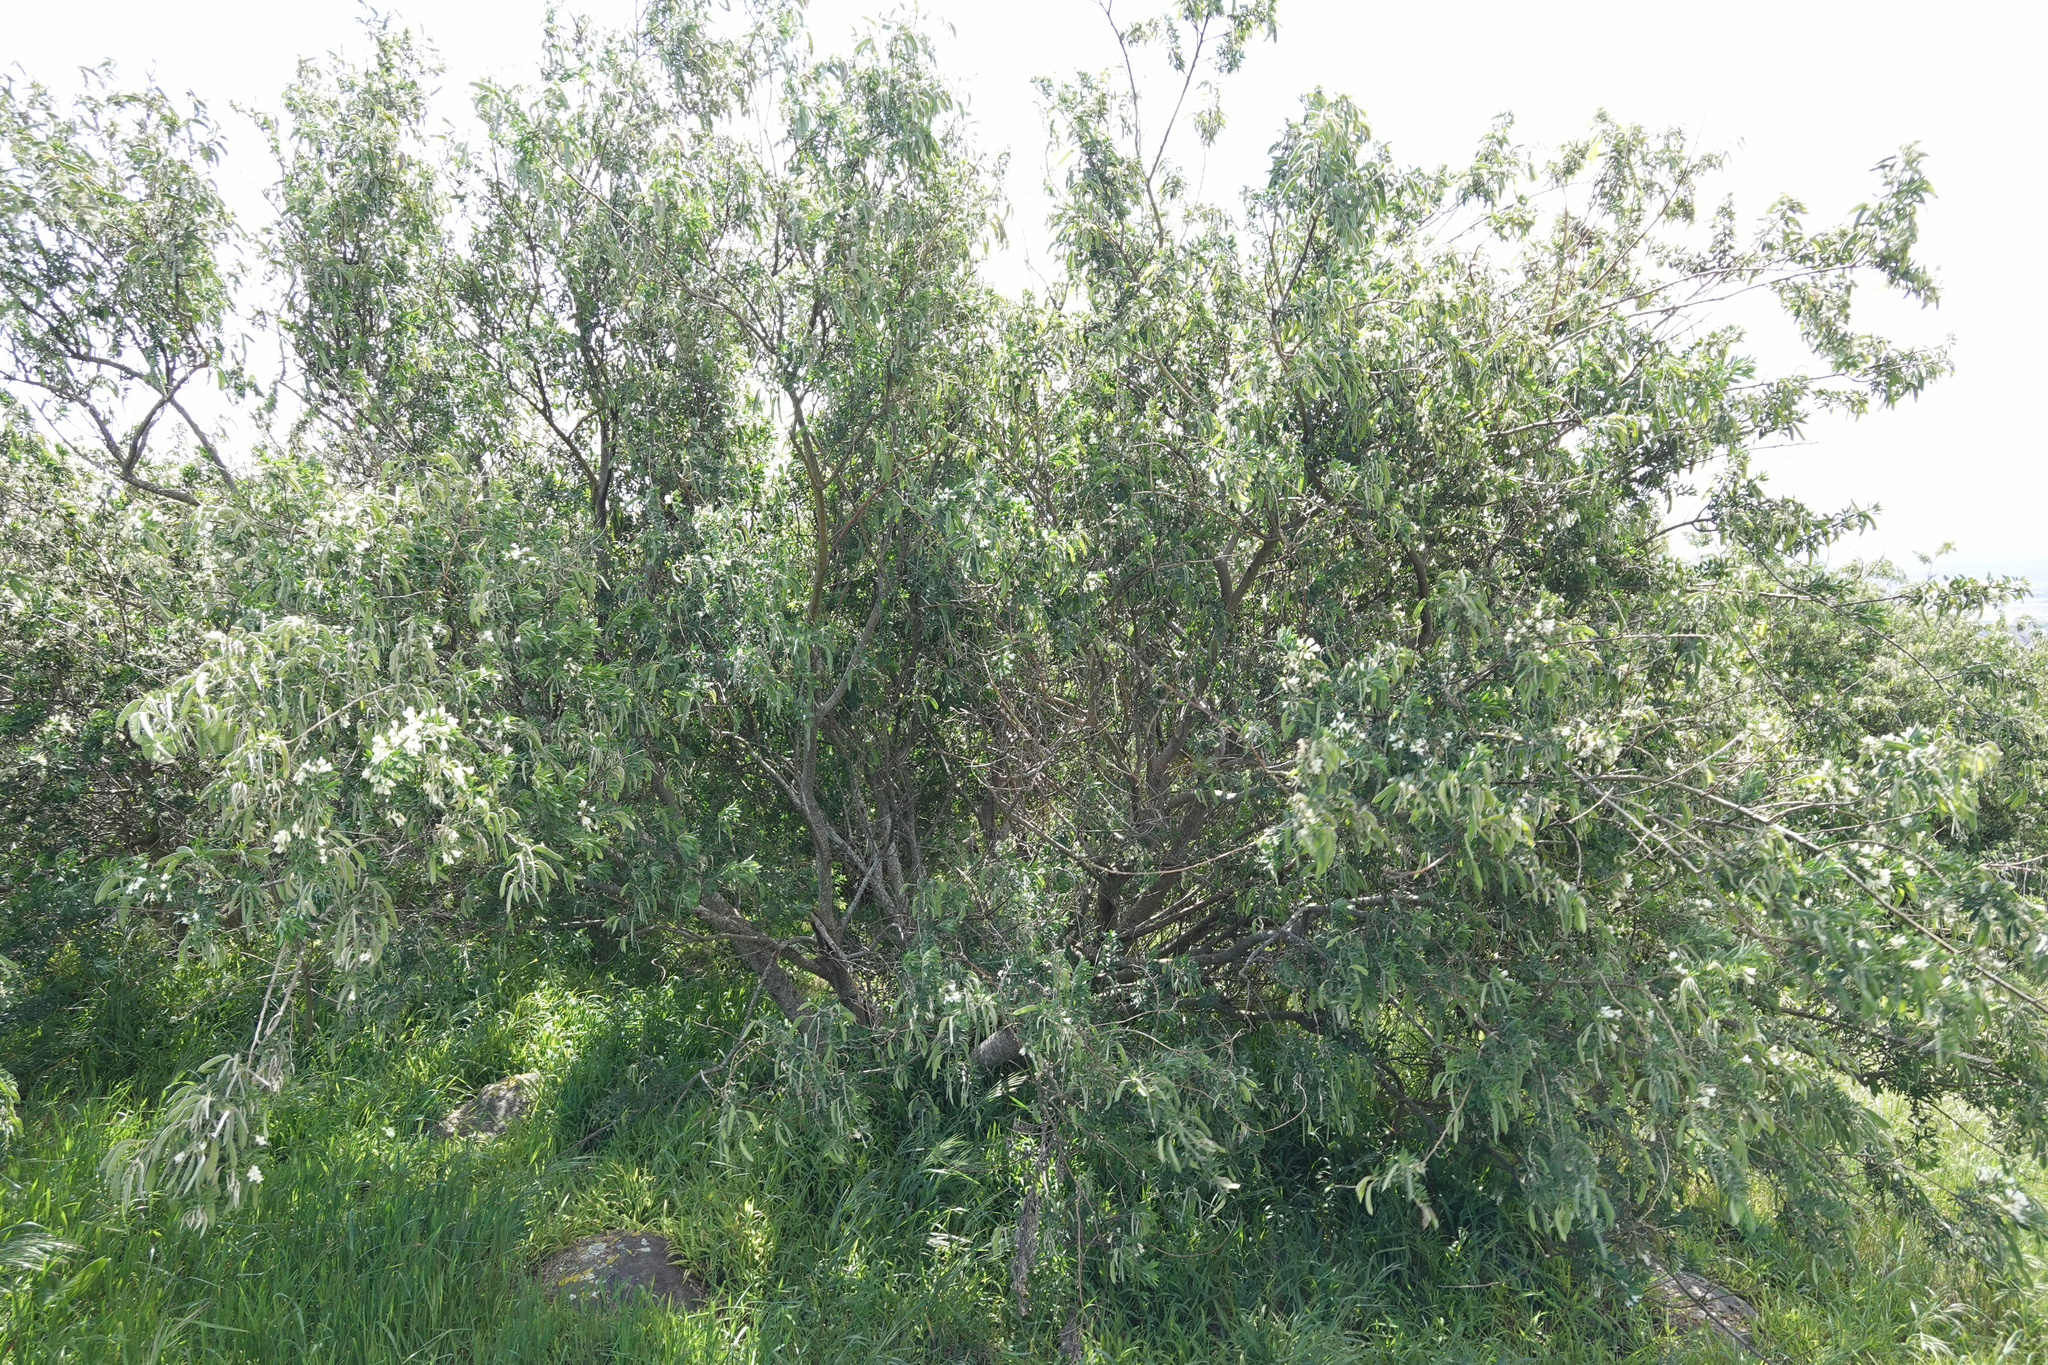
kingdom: Plantae
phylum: Tracheophyta
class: Magnoliopsida
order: Fabales
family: Fabaceae
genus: Chamaecytisus
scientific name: Chamaecytisus prolifer
